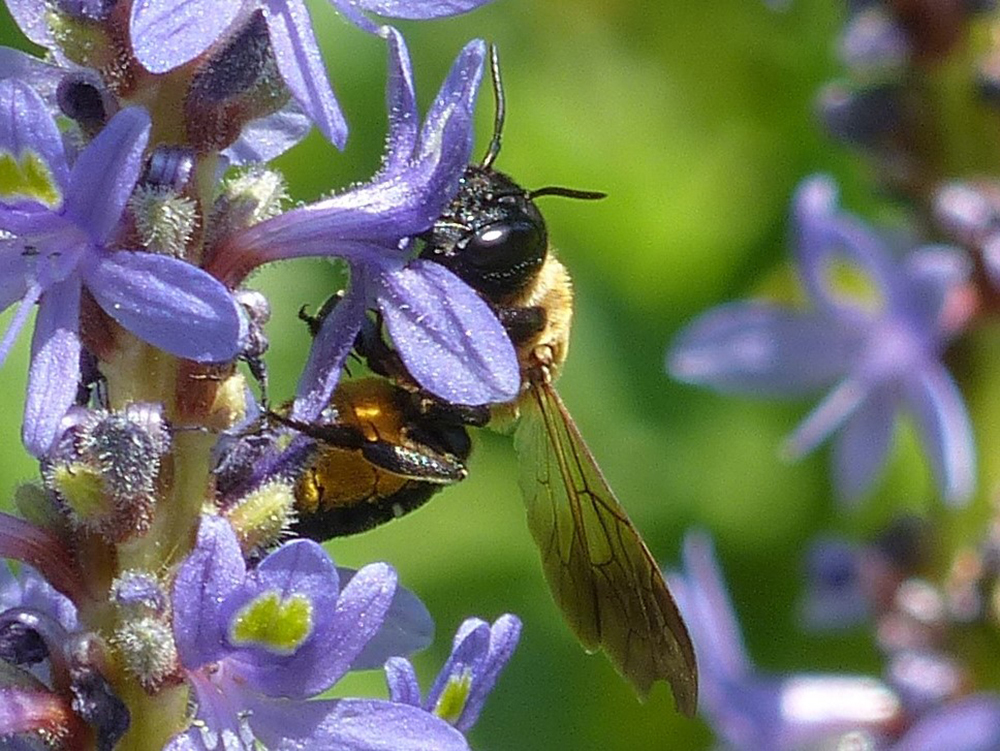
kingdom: Animalia
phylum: Arthropoda
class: Insecta
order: Hymenoptera
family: Megachilidae
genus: Megachile
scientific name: Megachile sculpturalis
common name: Sculptured resin bee
